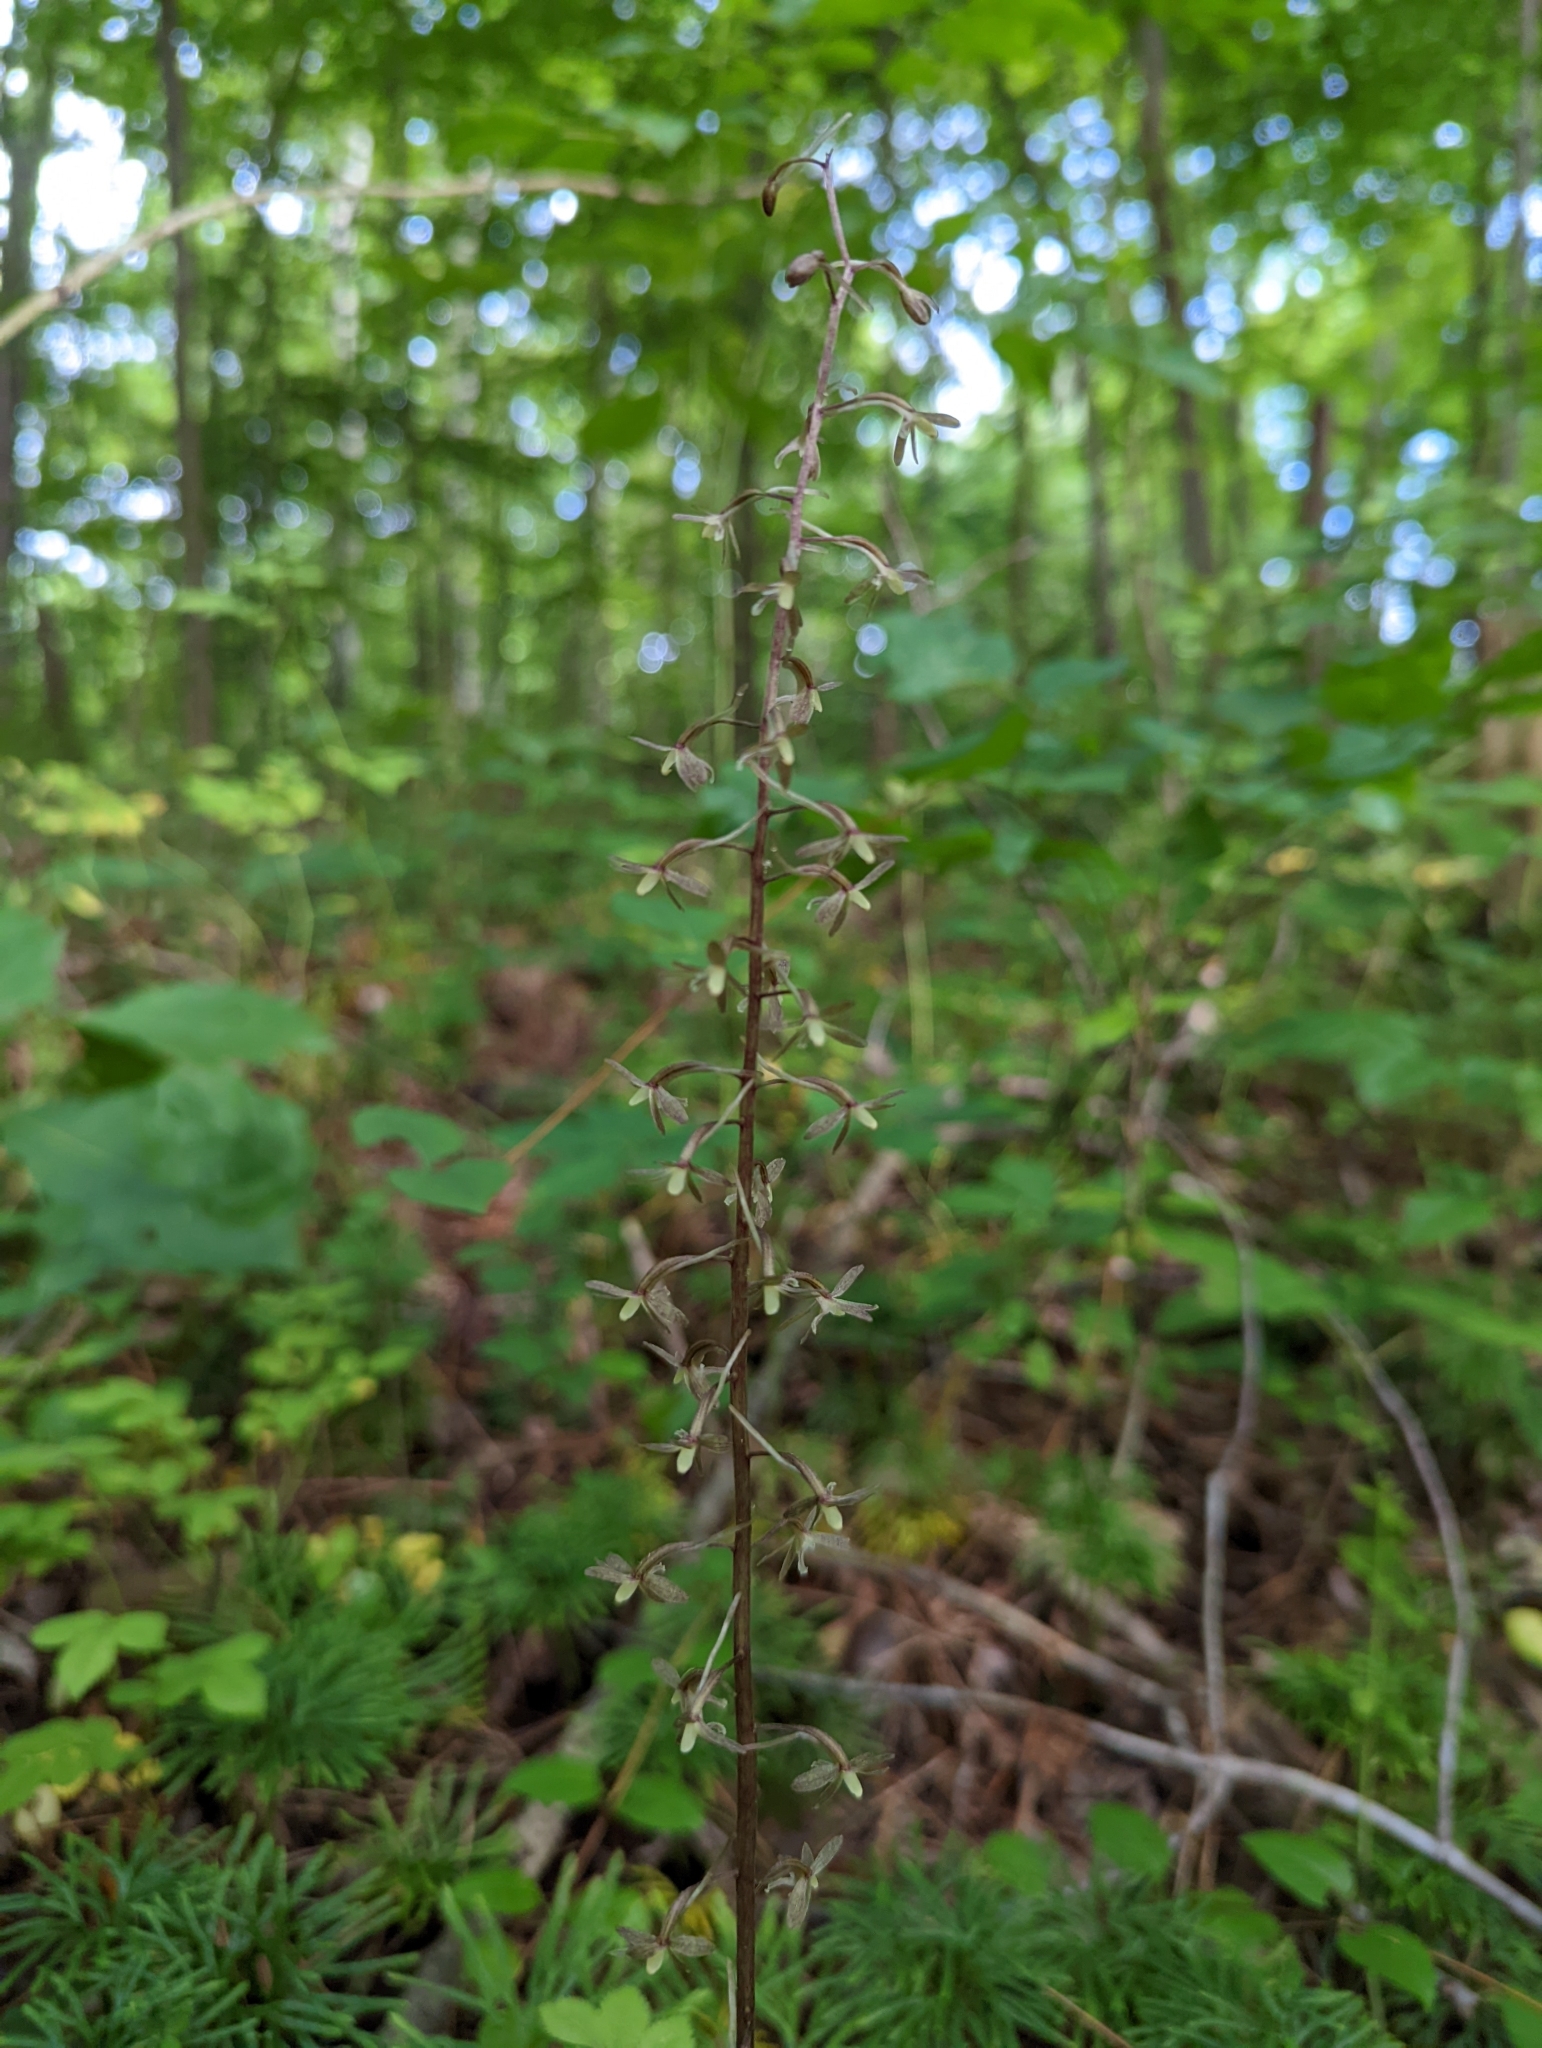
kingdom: Plantae
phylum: Tracheophyta
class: Liliopsida
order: Asparagales
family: Orchidaceae
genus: Tipularia
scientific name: Tipularia discolor
